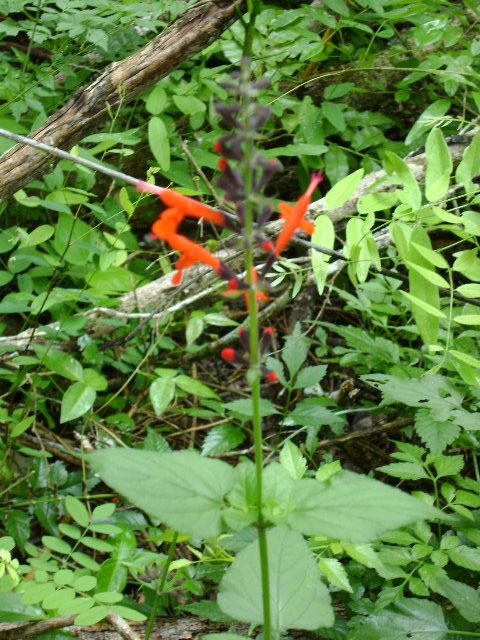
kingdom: Plantae
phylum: Tracheophyta
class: Magnoliopsida
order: Lamiales
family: Lamiaceae
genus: Salvia
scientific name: Salvia coccinea
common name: Blood sage
